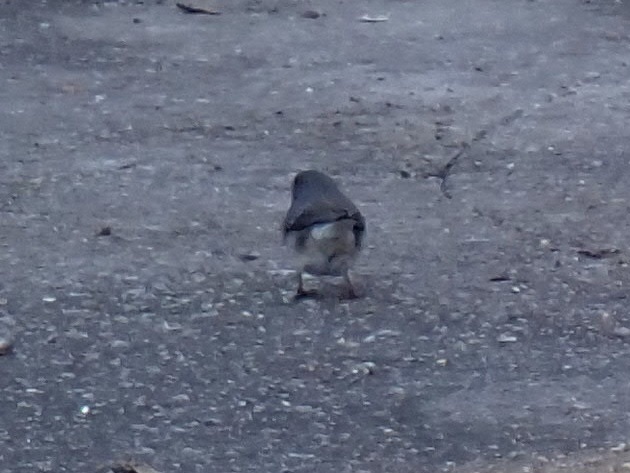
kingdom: Animalia
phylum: Chordata
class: Aves
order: Passeriformes
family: Passerellidae
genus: Junco
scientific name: Junco hyemalis
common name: Dark-eyed junco
